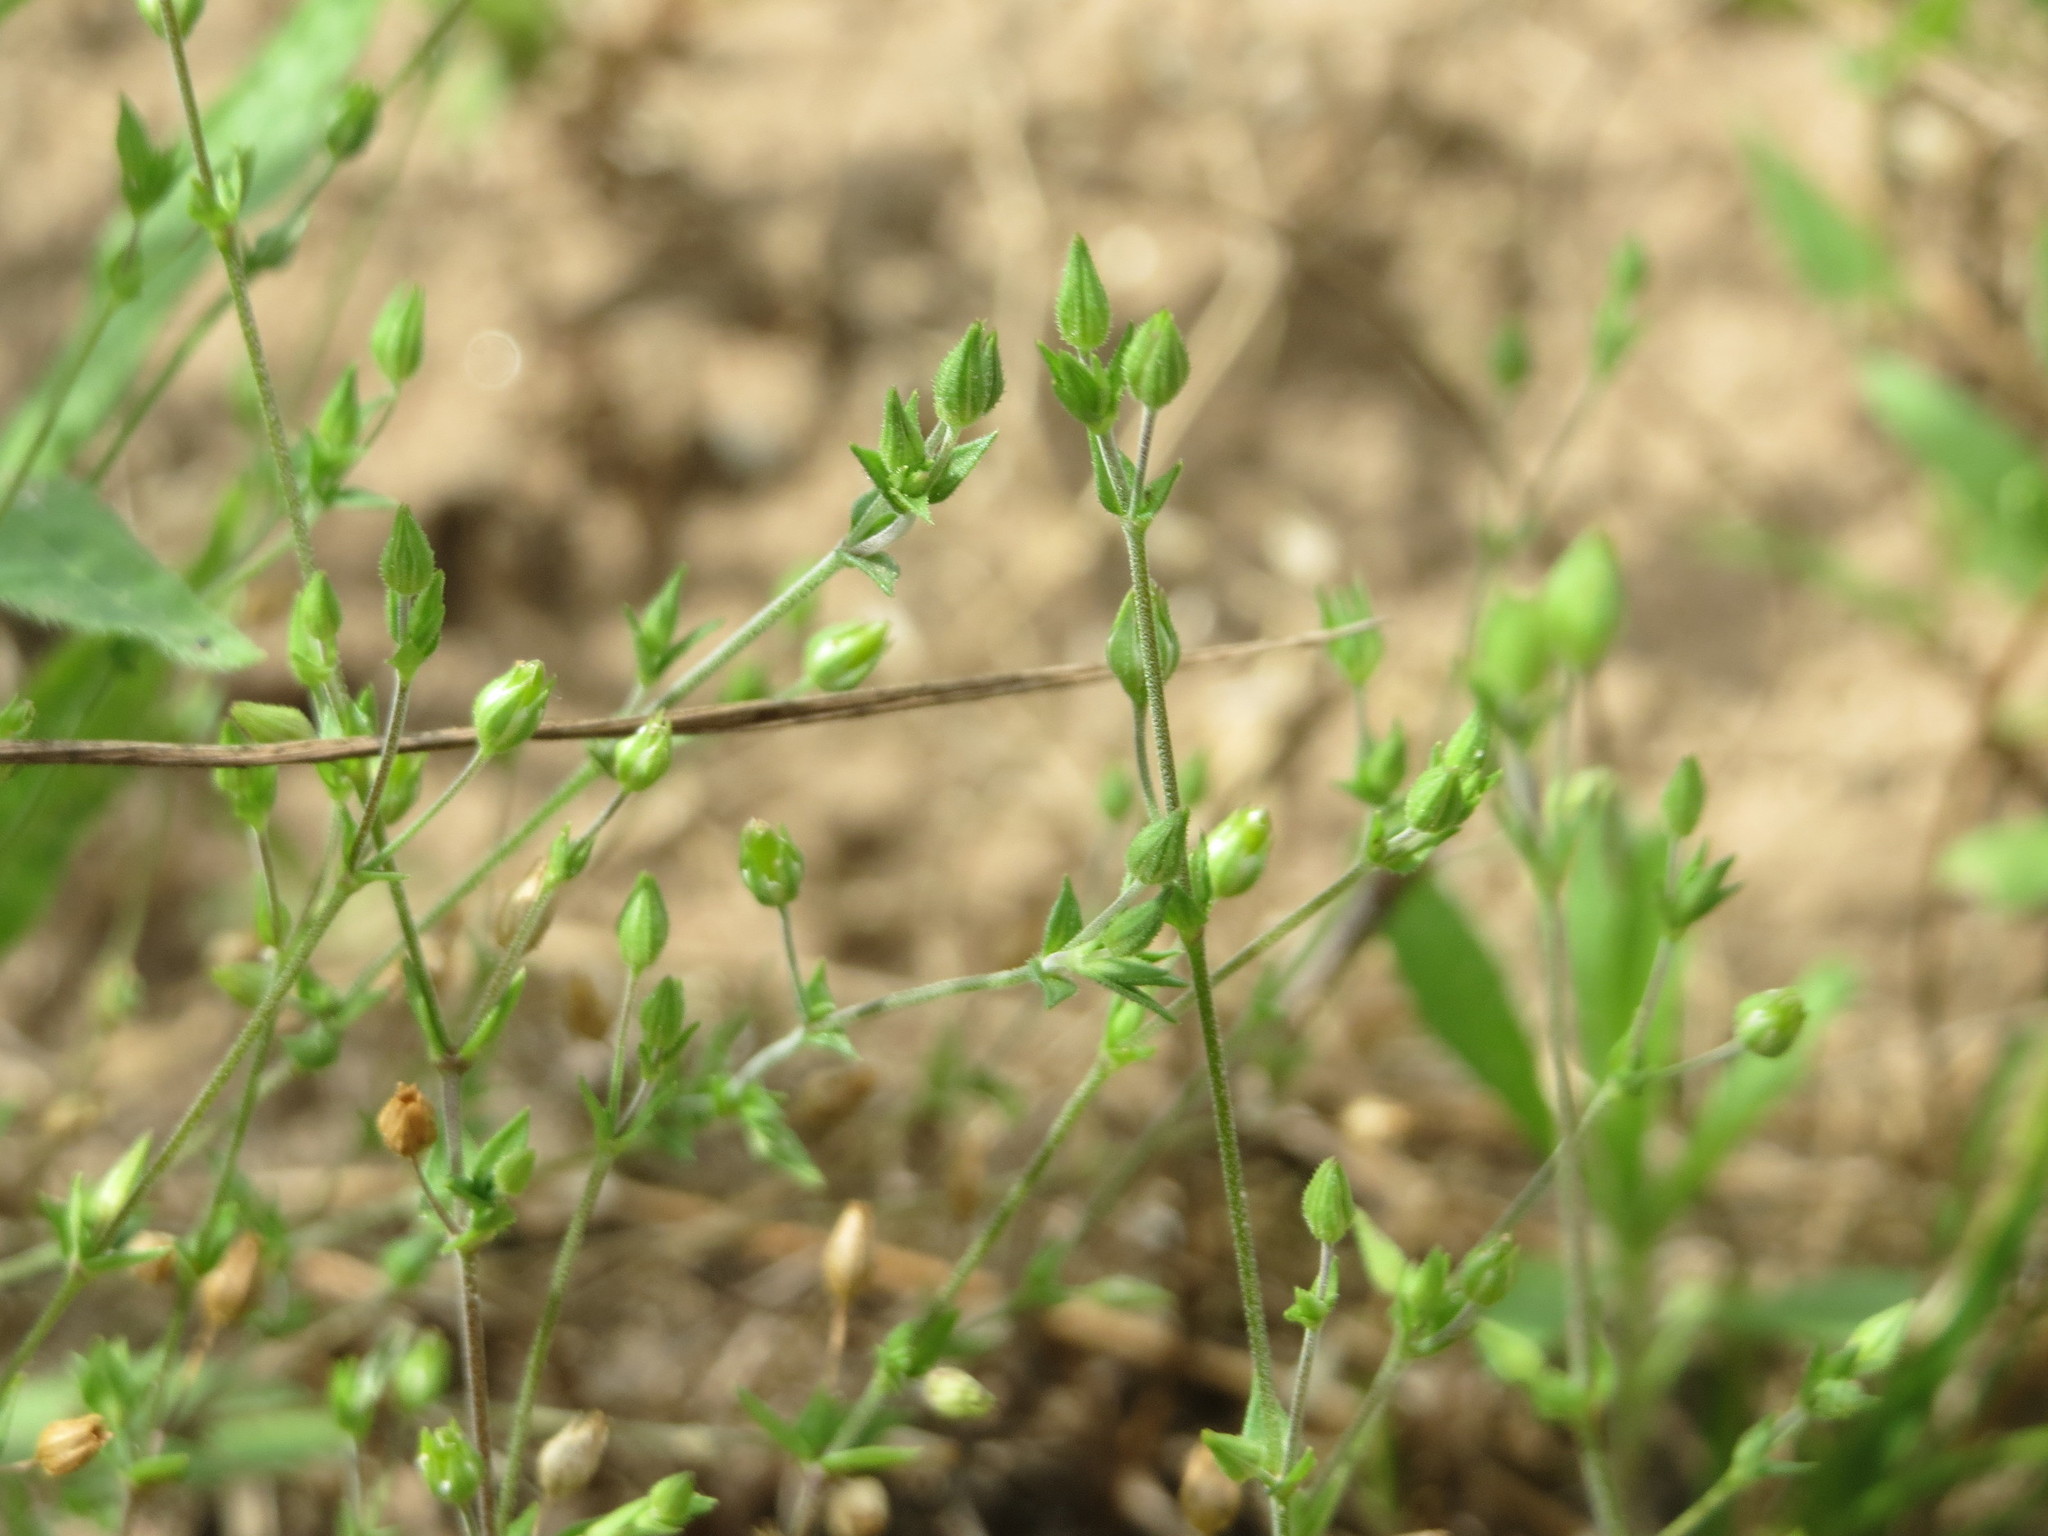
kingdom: Plantae
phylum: Tracheophyta
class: Magnoliopsida
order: Caryophyllales
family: Caryophyllaceae
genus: Arenaria
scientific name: Arenaria serpyllifolia
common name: Thyme-leaved sandwort
